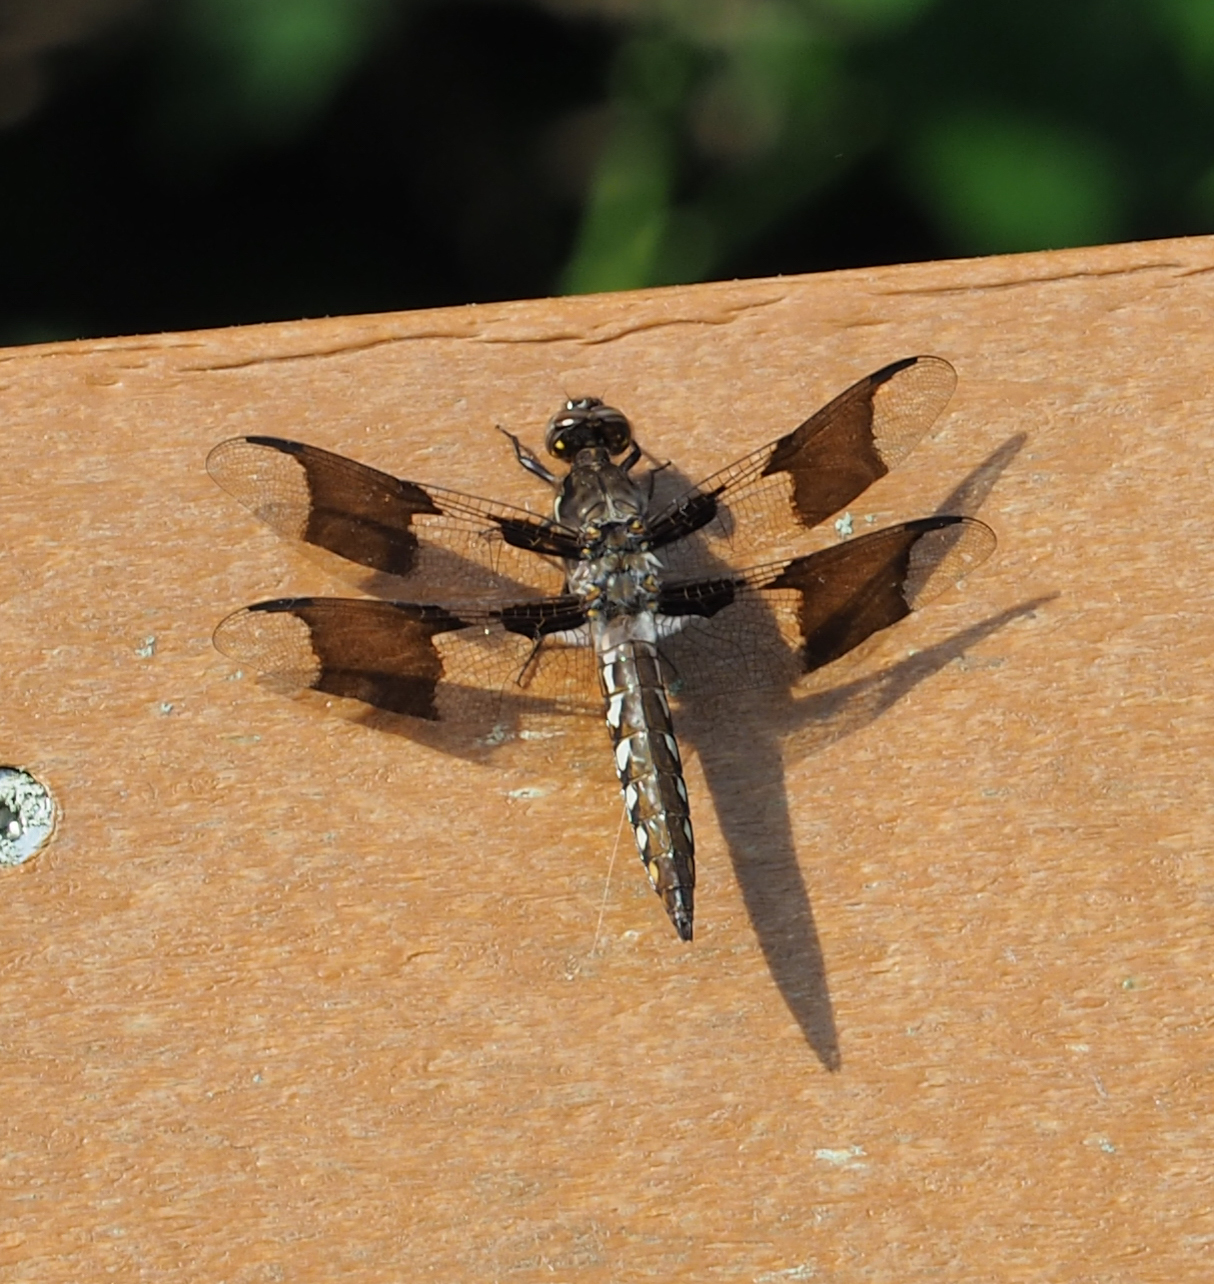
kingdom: Animalia
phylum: Arthropoda
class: Insecta
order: Odonata
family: Libellulidae
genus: Plathemis
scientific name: Plathemis lydia
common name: Common whitetail
